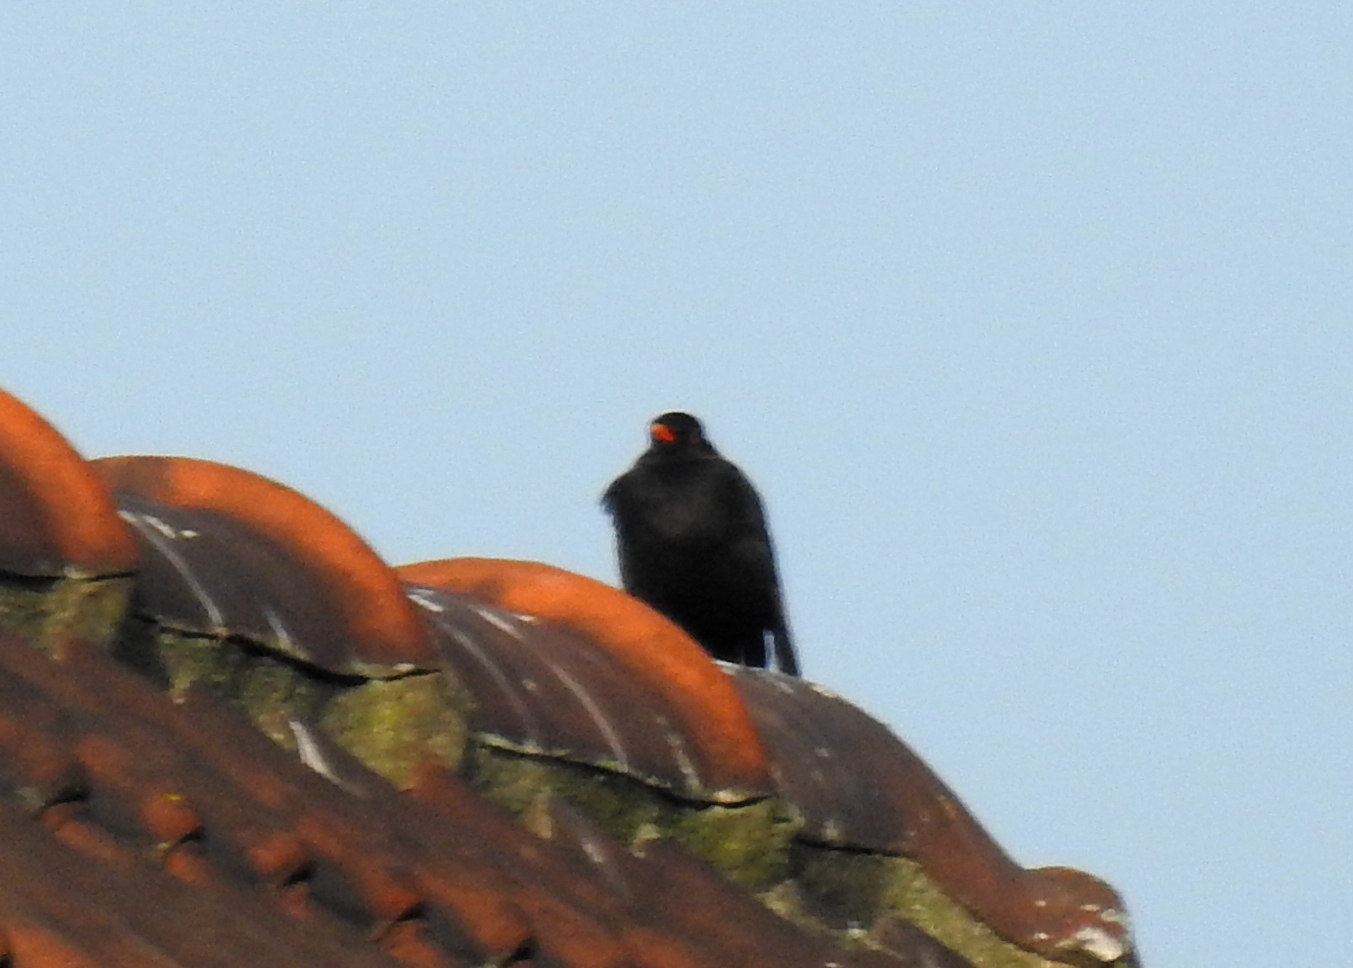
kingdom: Animalia
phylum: Chordata
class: Aves
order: Passeriformes
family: Turdidae
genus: Turdus
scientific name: Turdus merula
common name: Common blackbird
